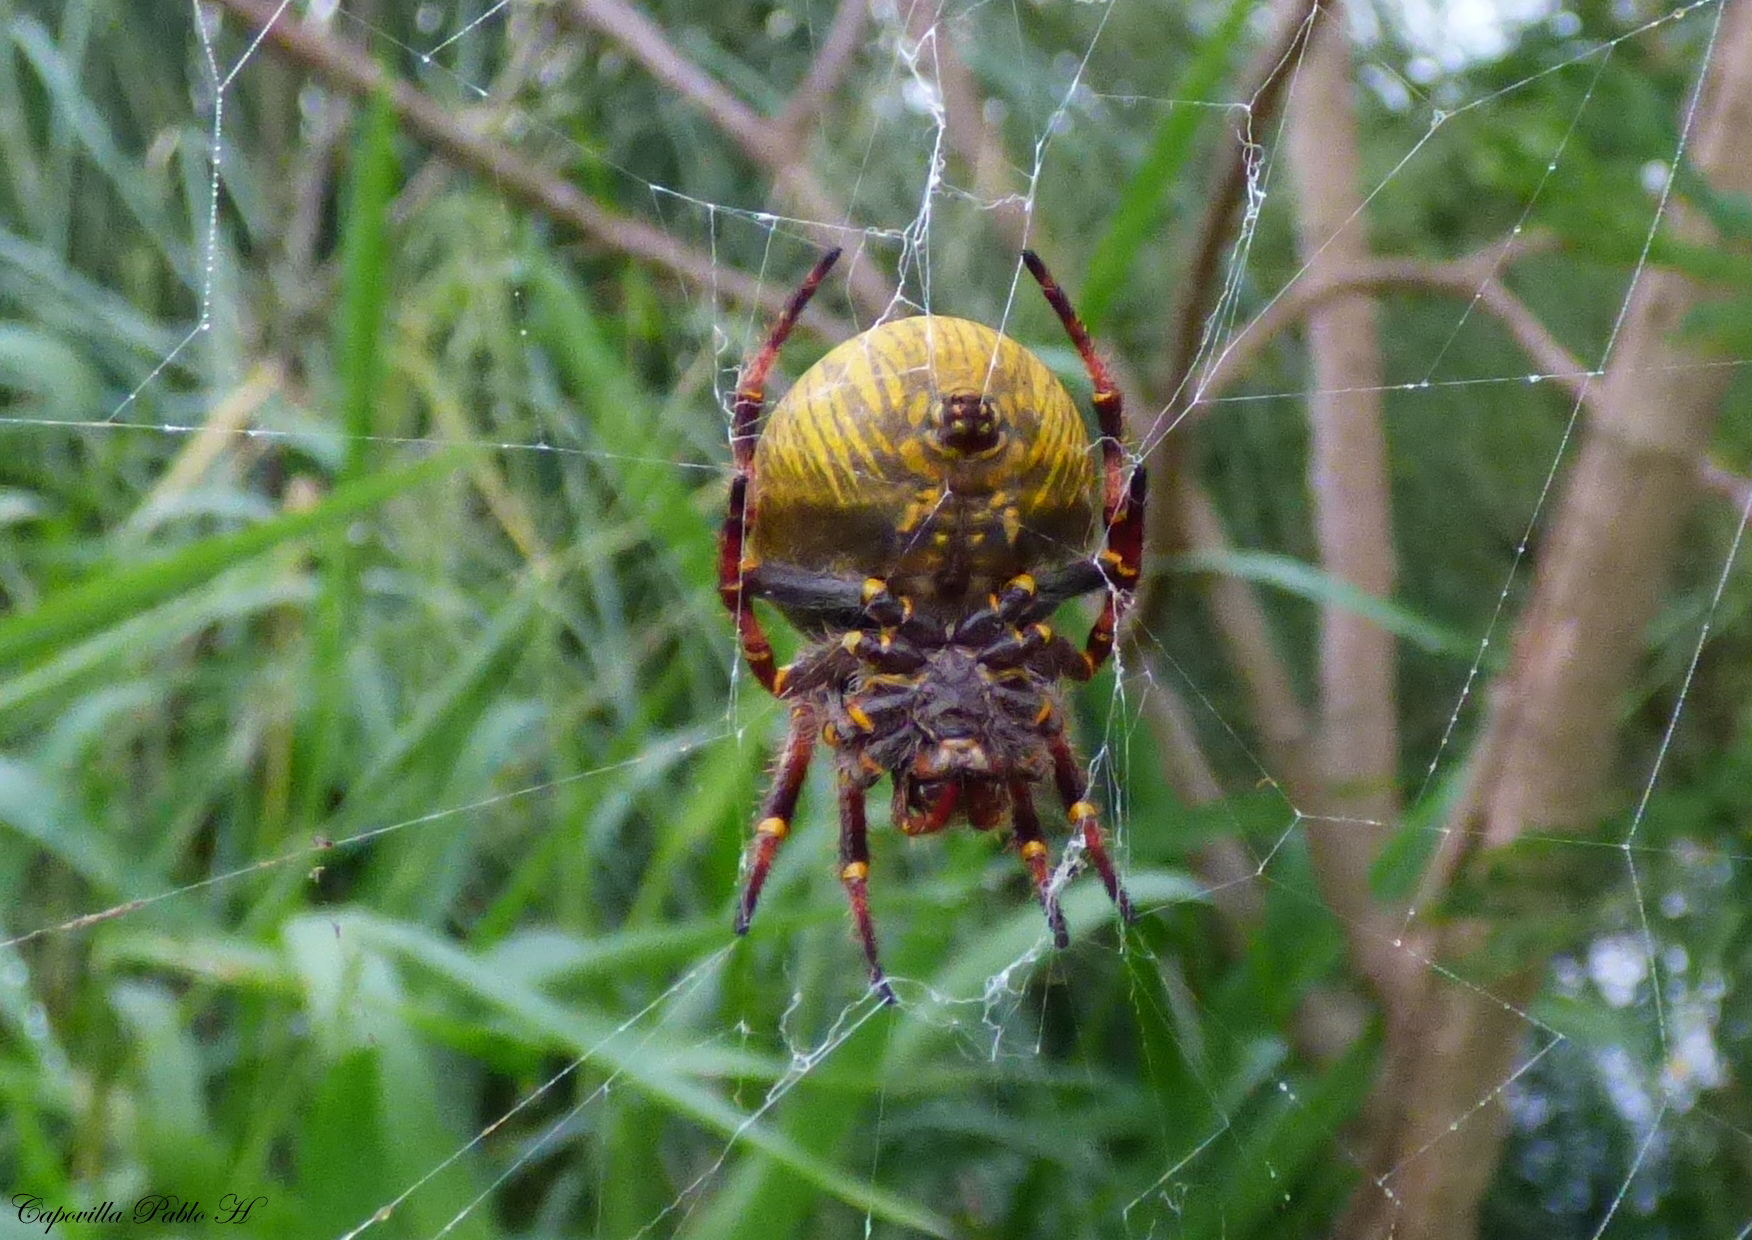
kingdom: Animalia
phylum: Arthropoda
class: Arachnida
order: Araneae
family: Araneidae
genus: Parawixia
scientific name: Parawixia bistriata
